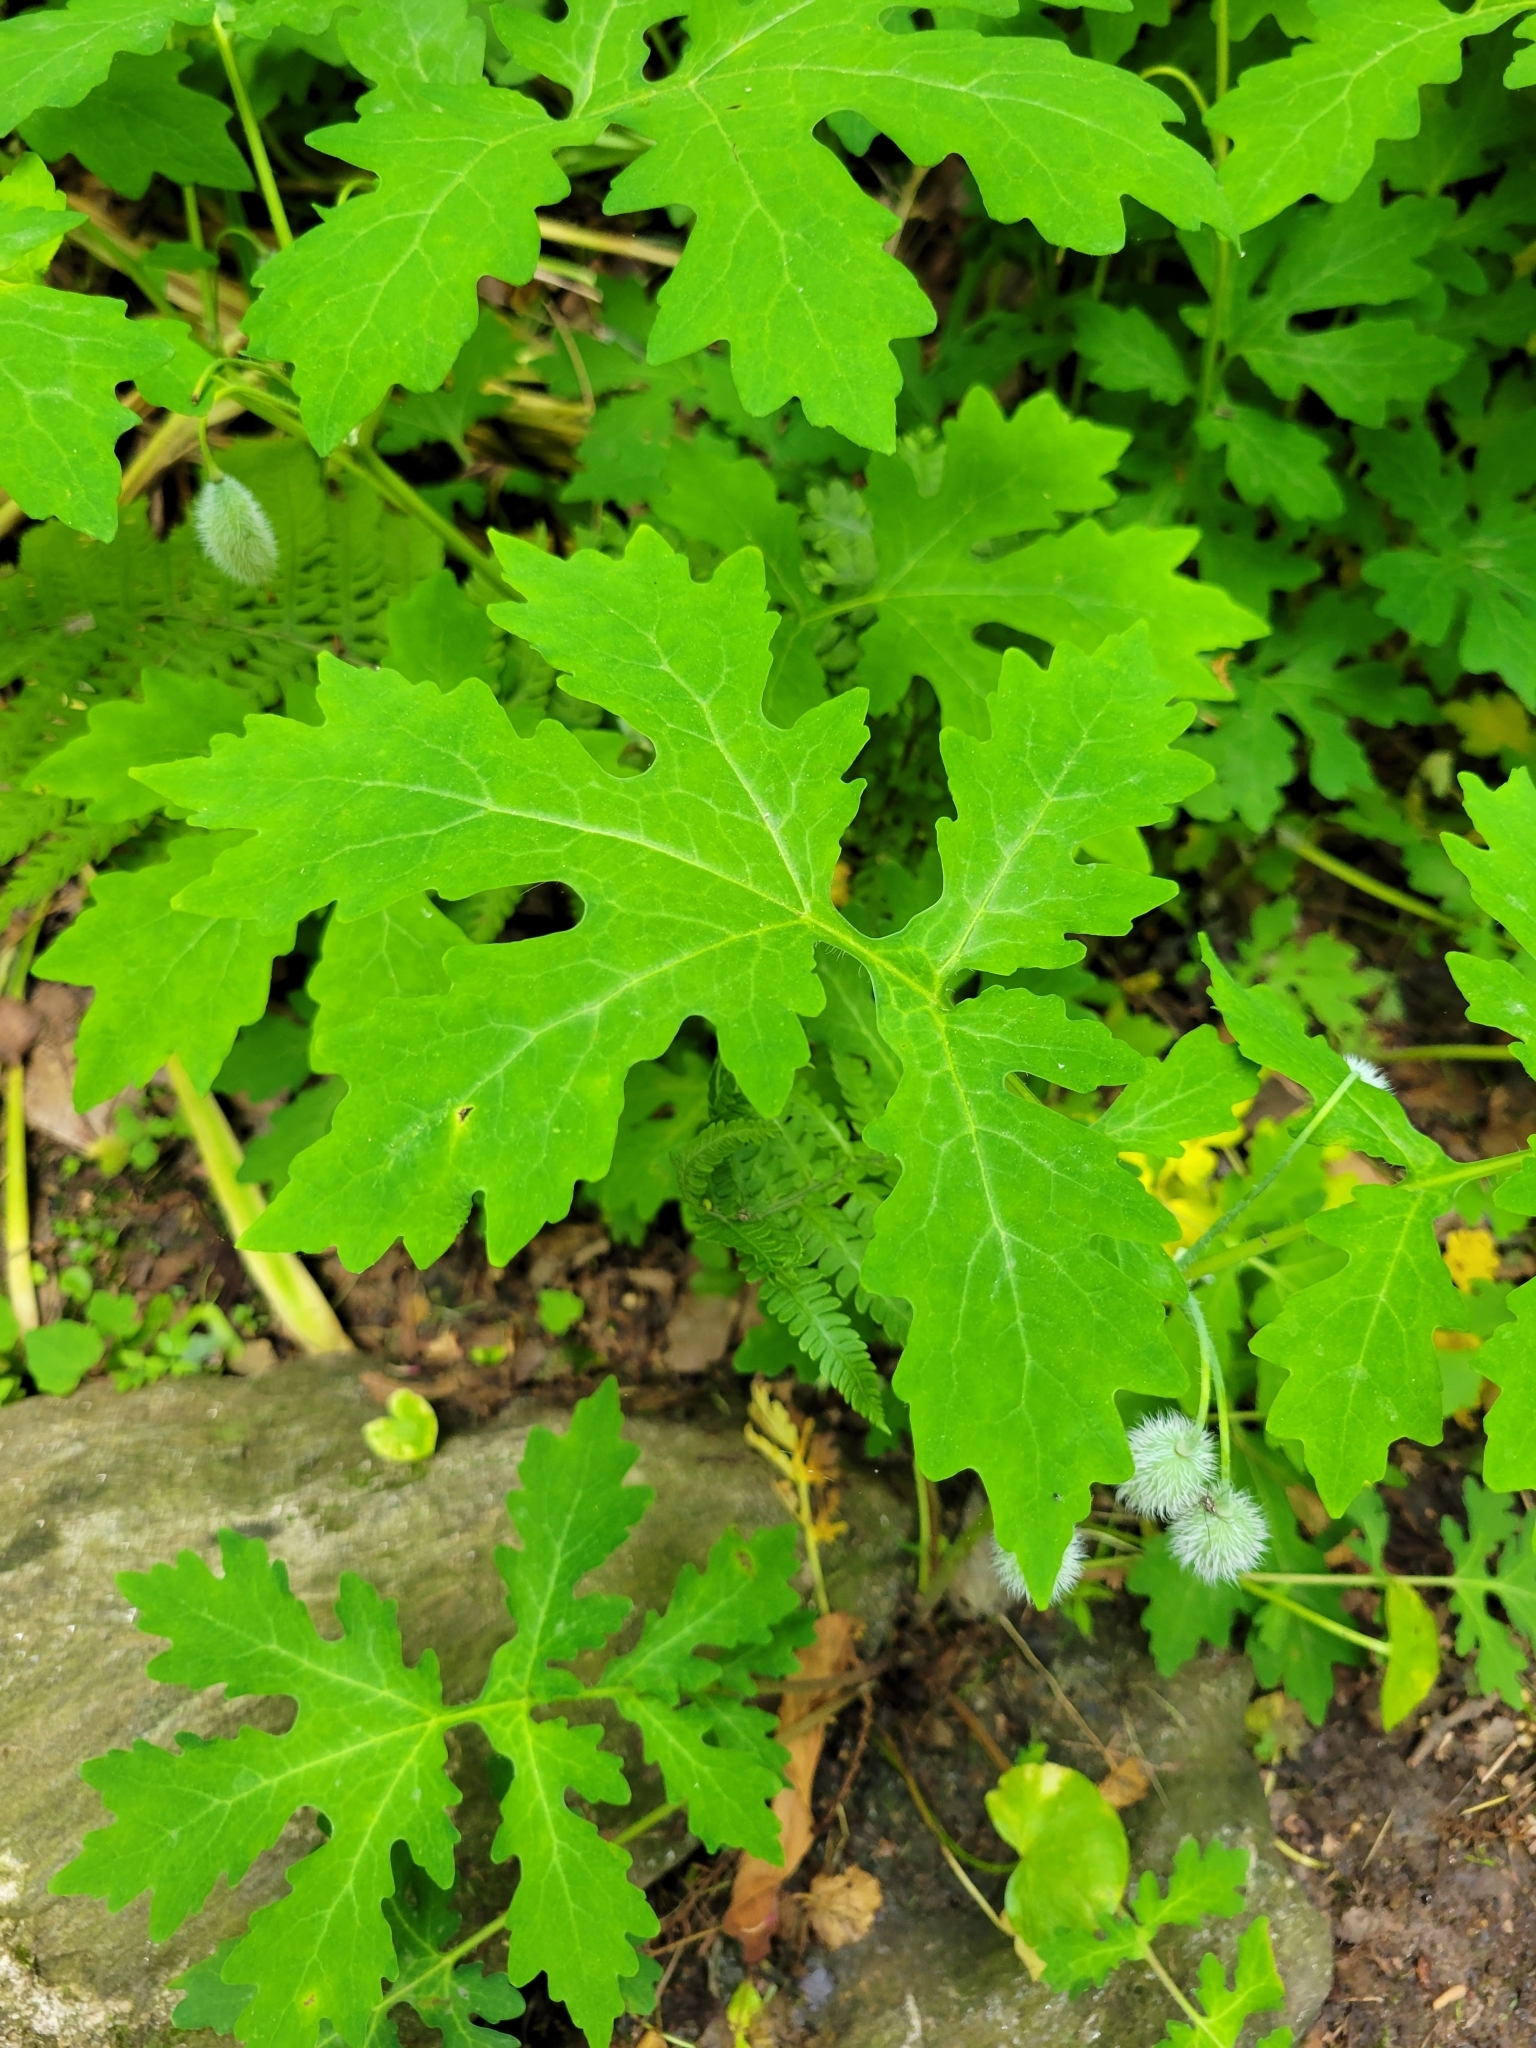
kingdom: Plantae
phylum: Tracheophyta
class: Magnoliopsida
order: Ranunculales
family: Papaveraceae
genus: Stylophorum
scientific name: Stylophorum diphyllum
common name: Celandine poppy
